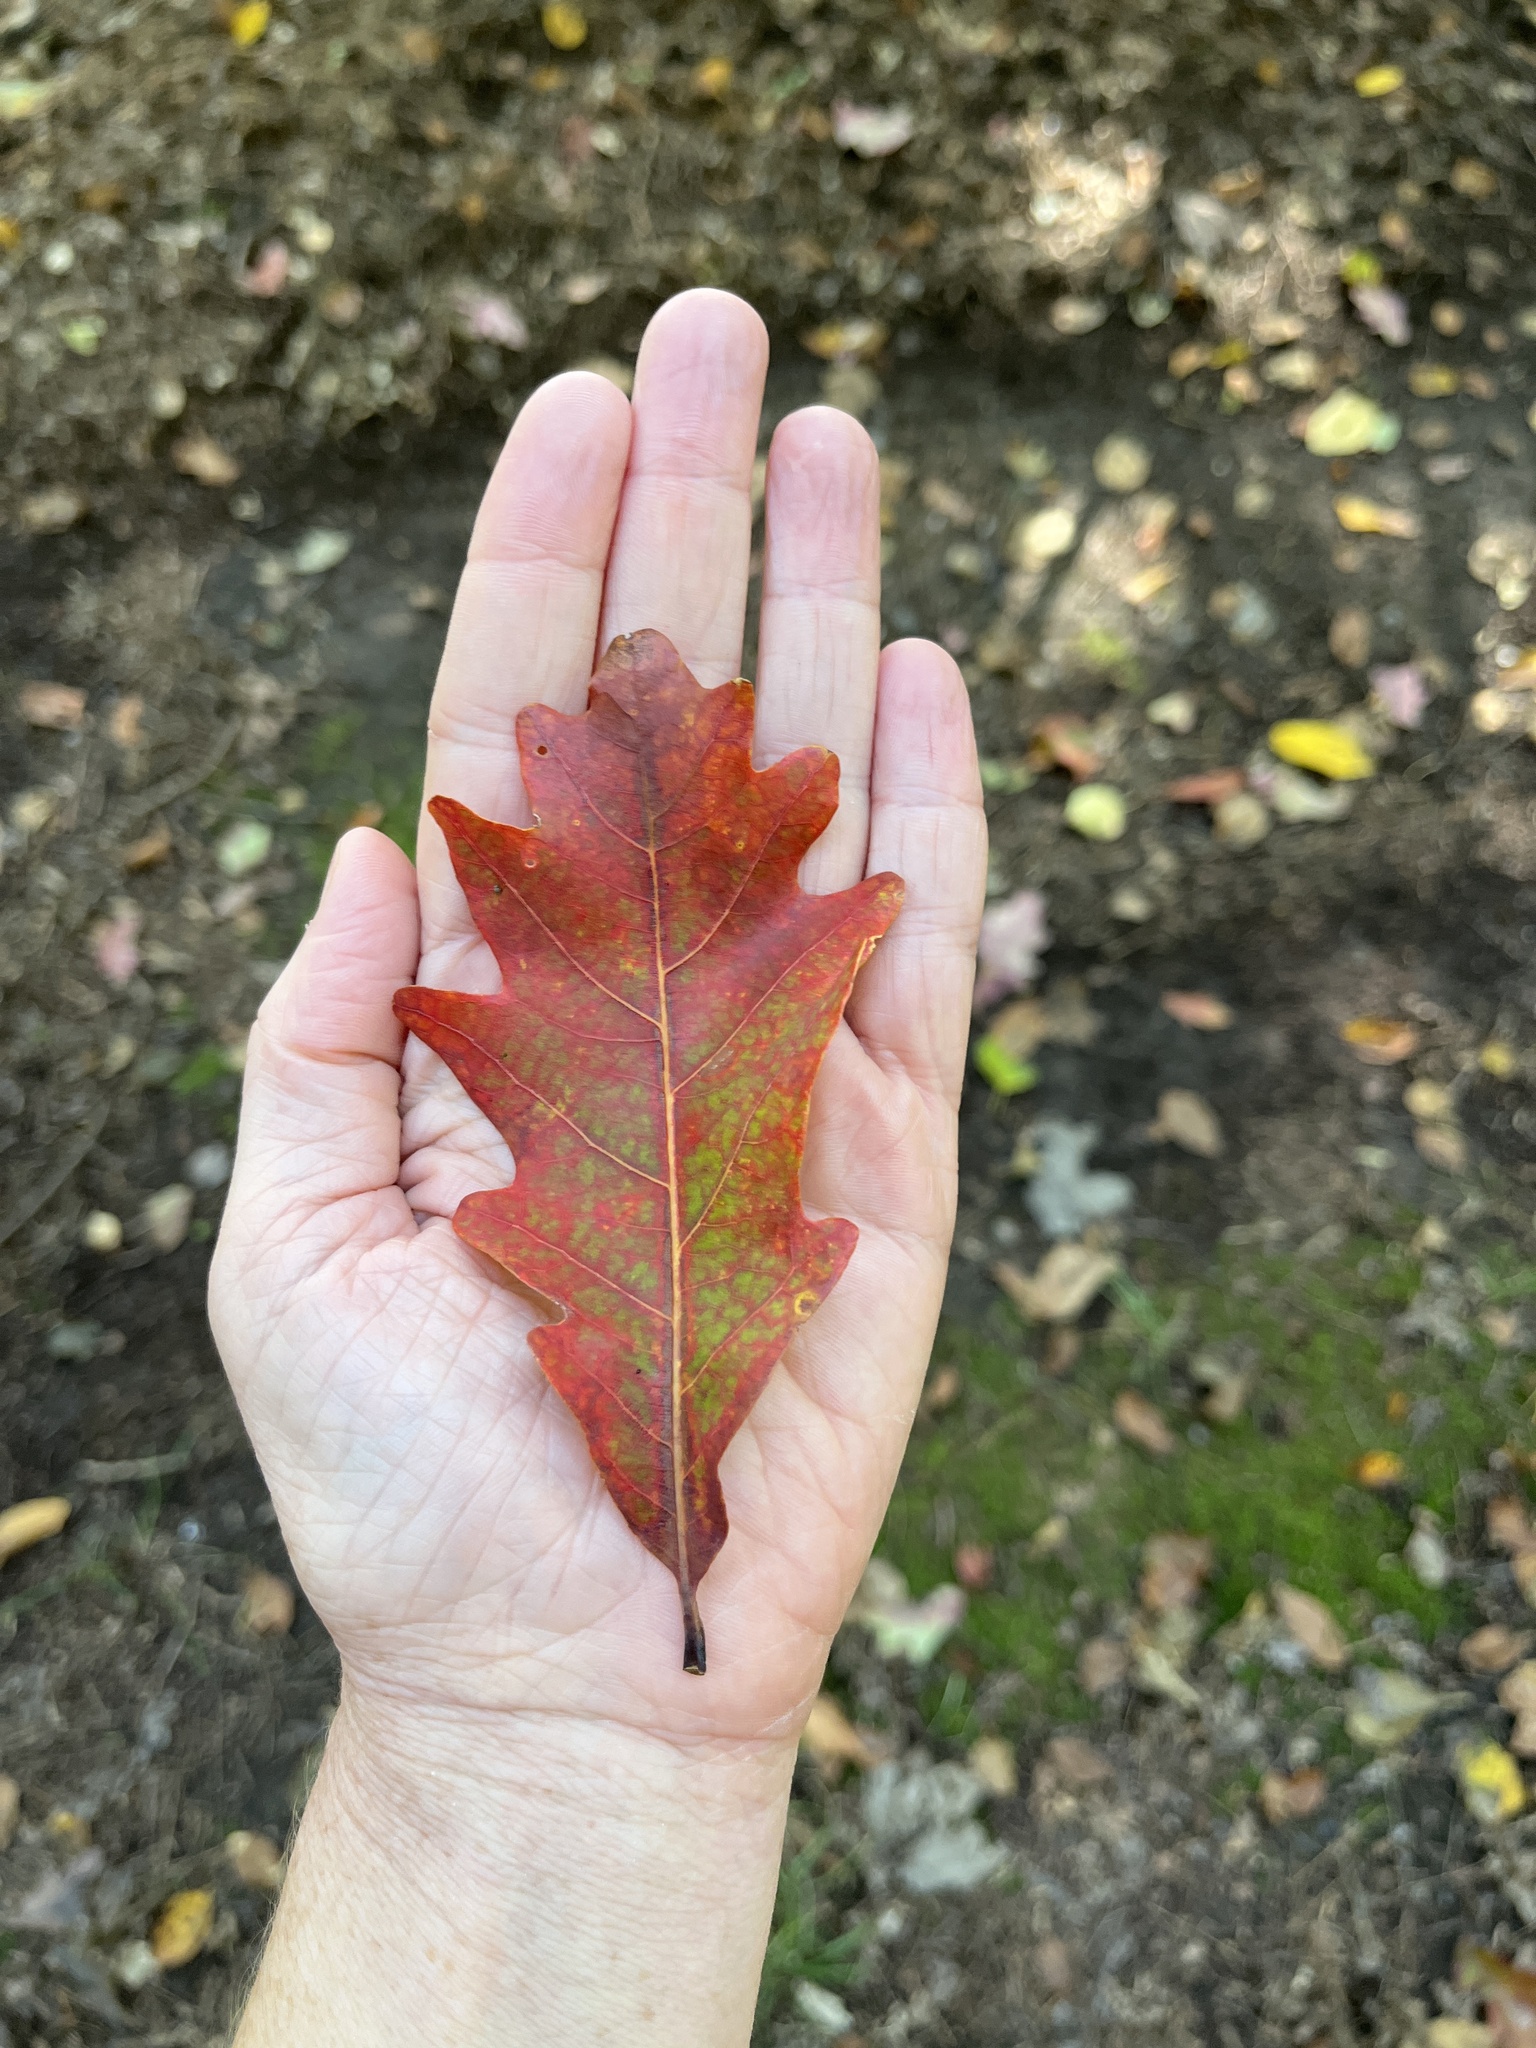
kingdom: Plantae
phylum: Tracheophyta
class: Magnoliopsida
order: Fagales
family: Fagaceae
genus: Quercus
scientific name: Quercus alba
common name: White oak
